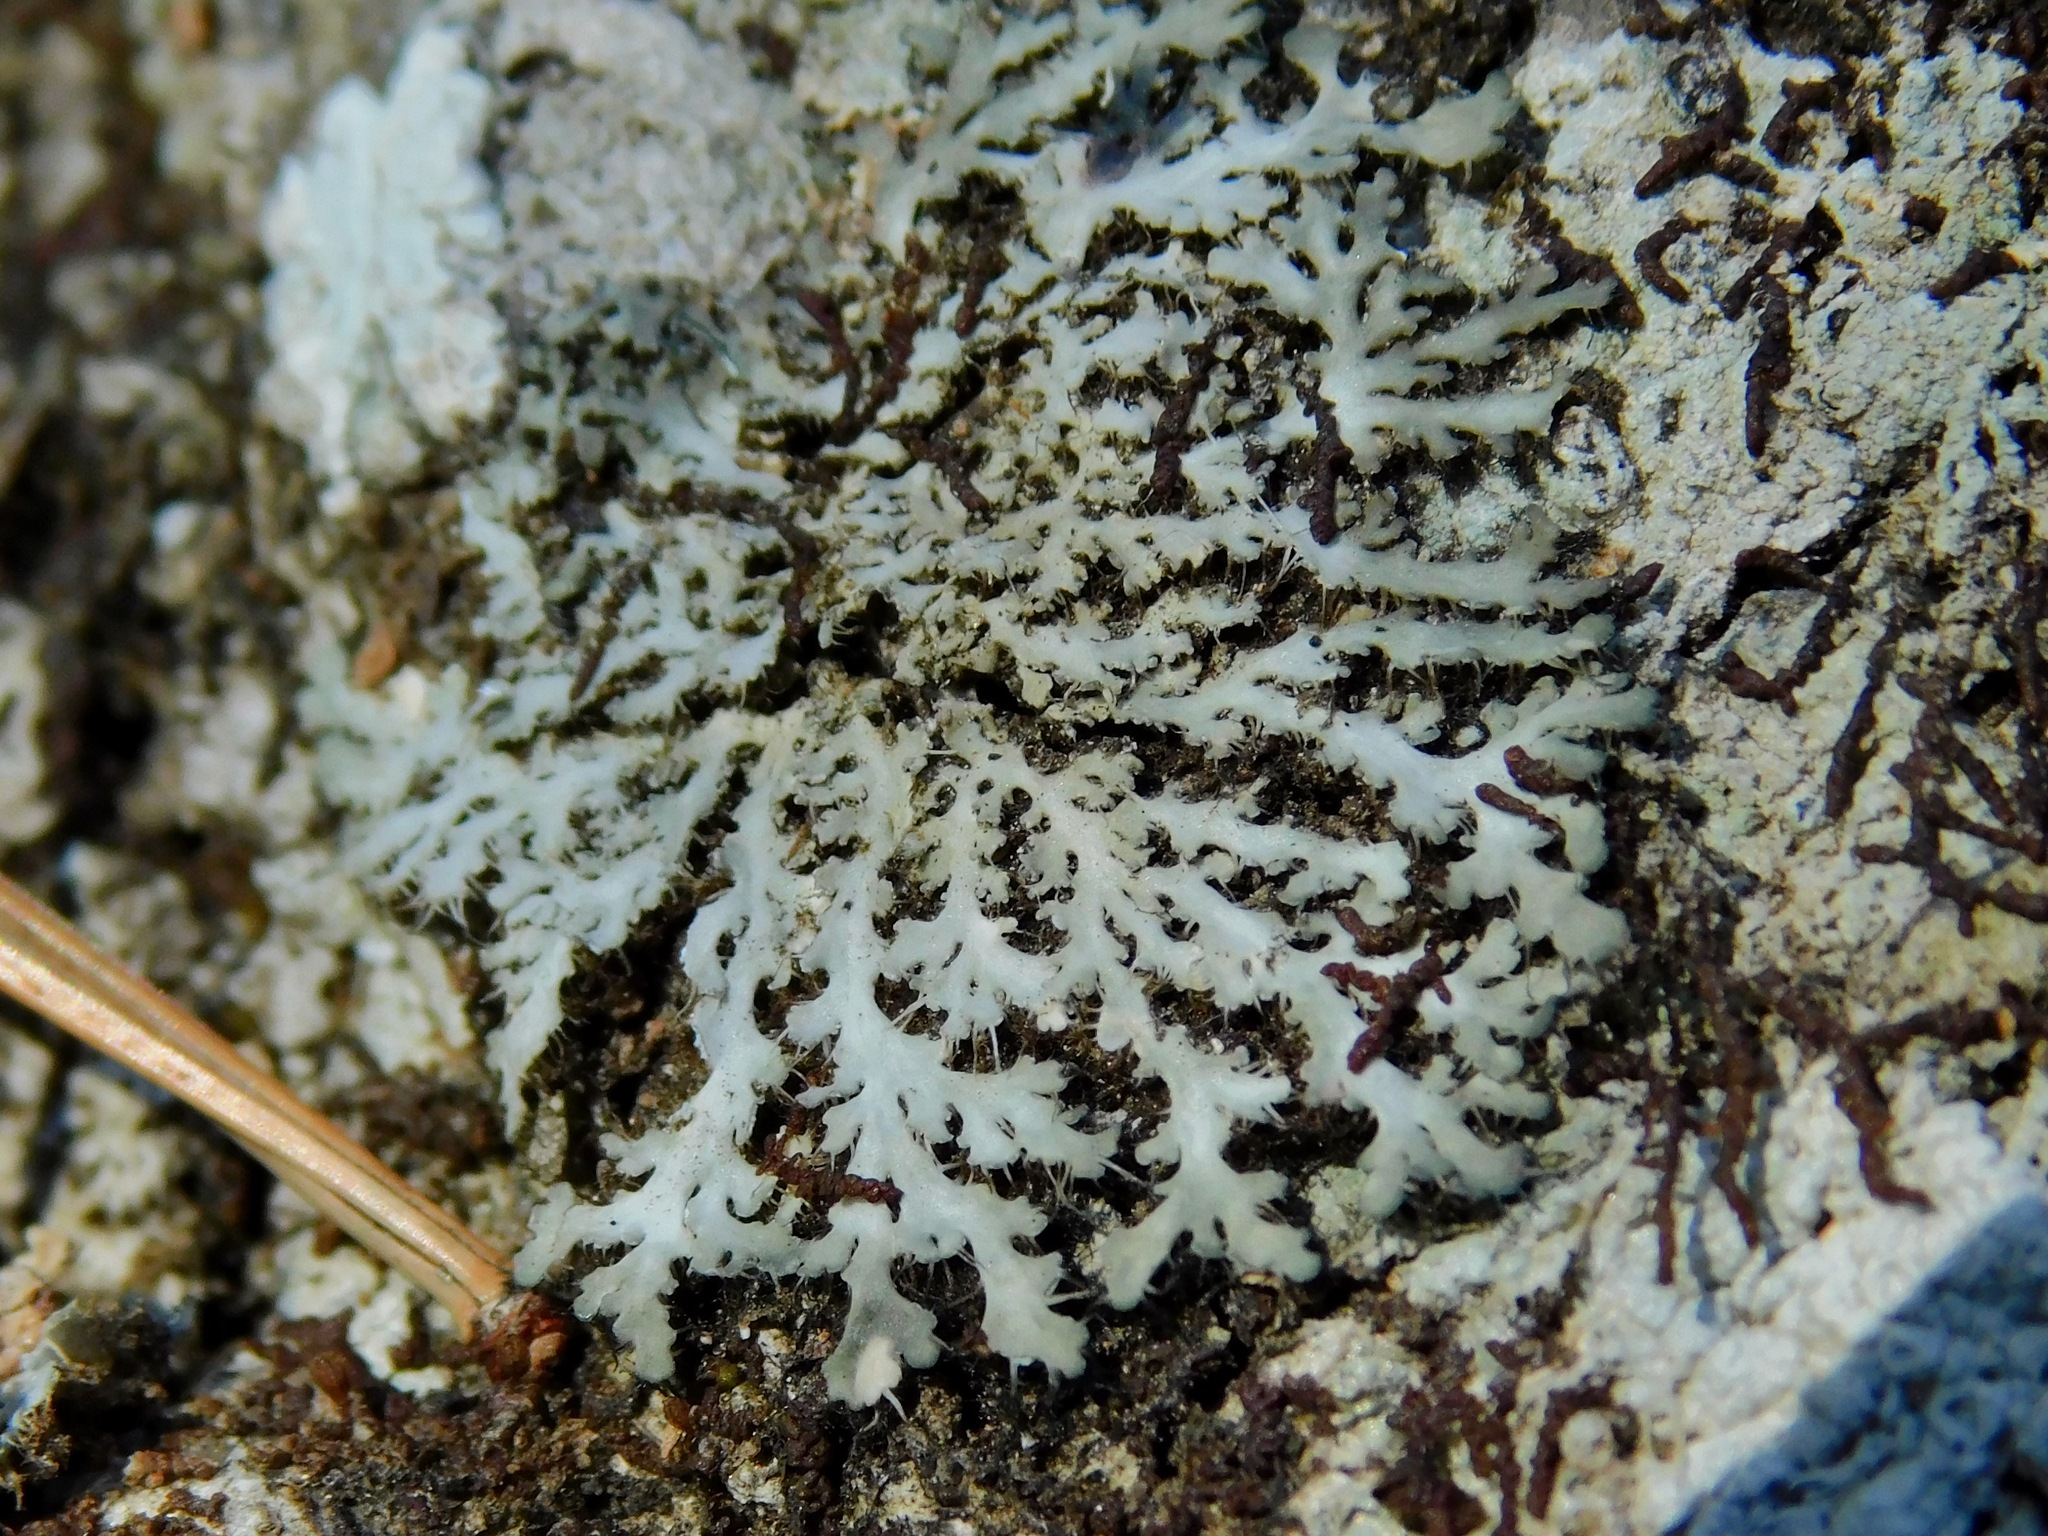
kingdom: Fungi
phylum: Ascomycota
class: Lecanoromycetes
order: Caliciales
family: Physciaceae
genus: Heterodermia
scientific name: Heterodermia speciosa
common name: Powdered fringe lichen
